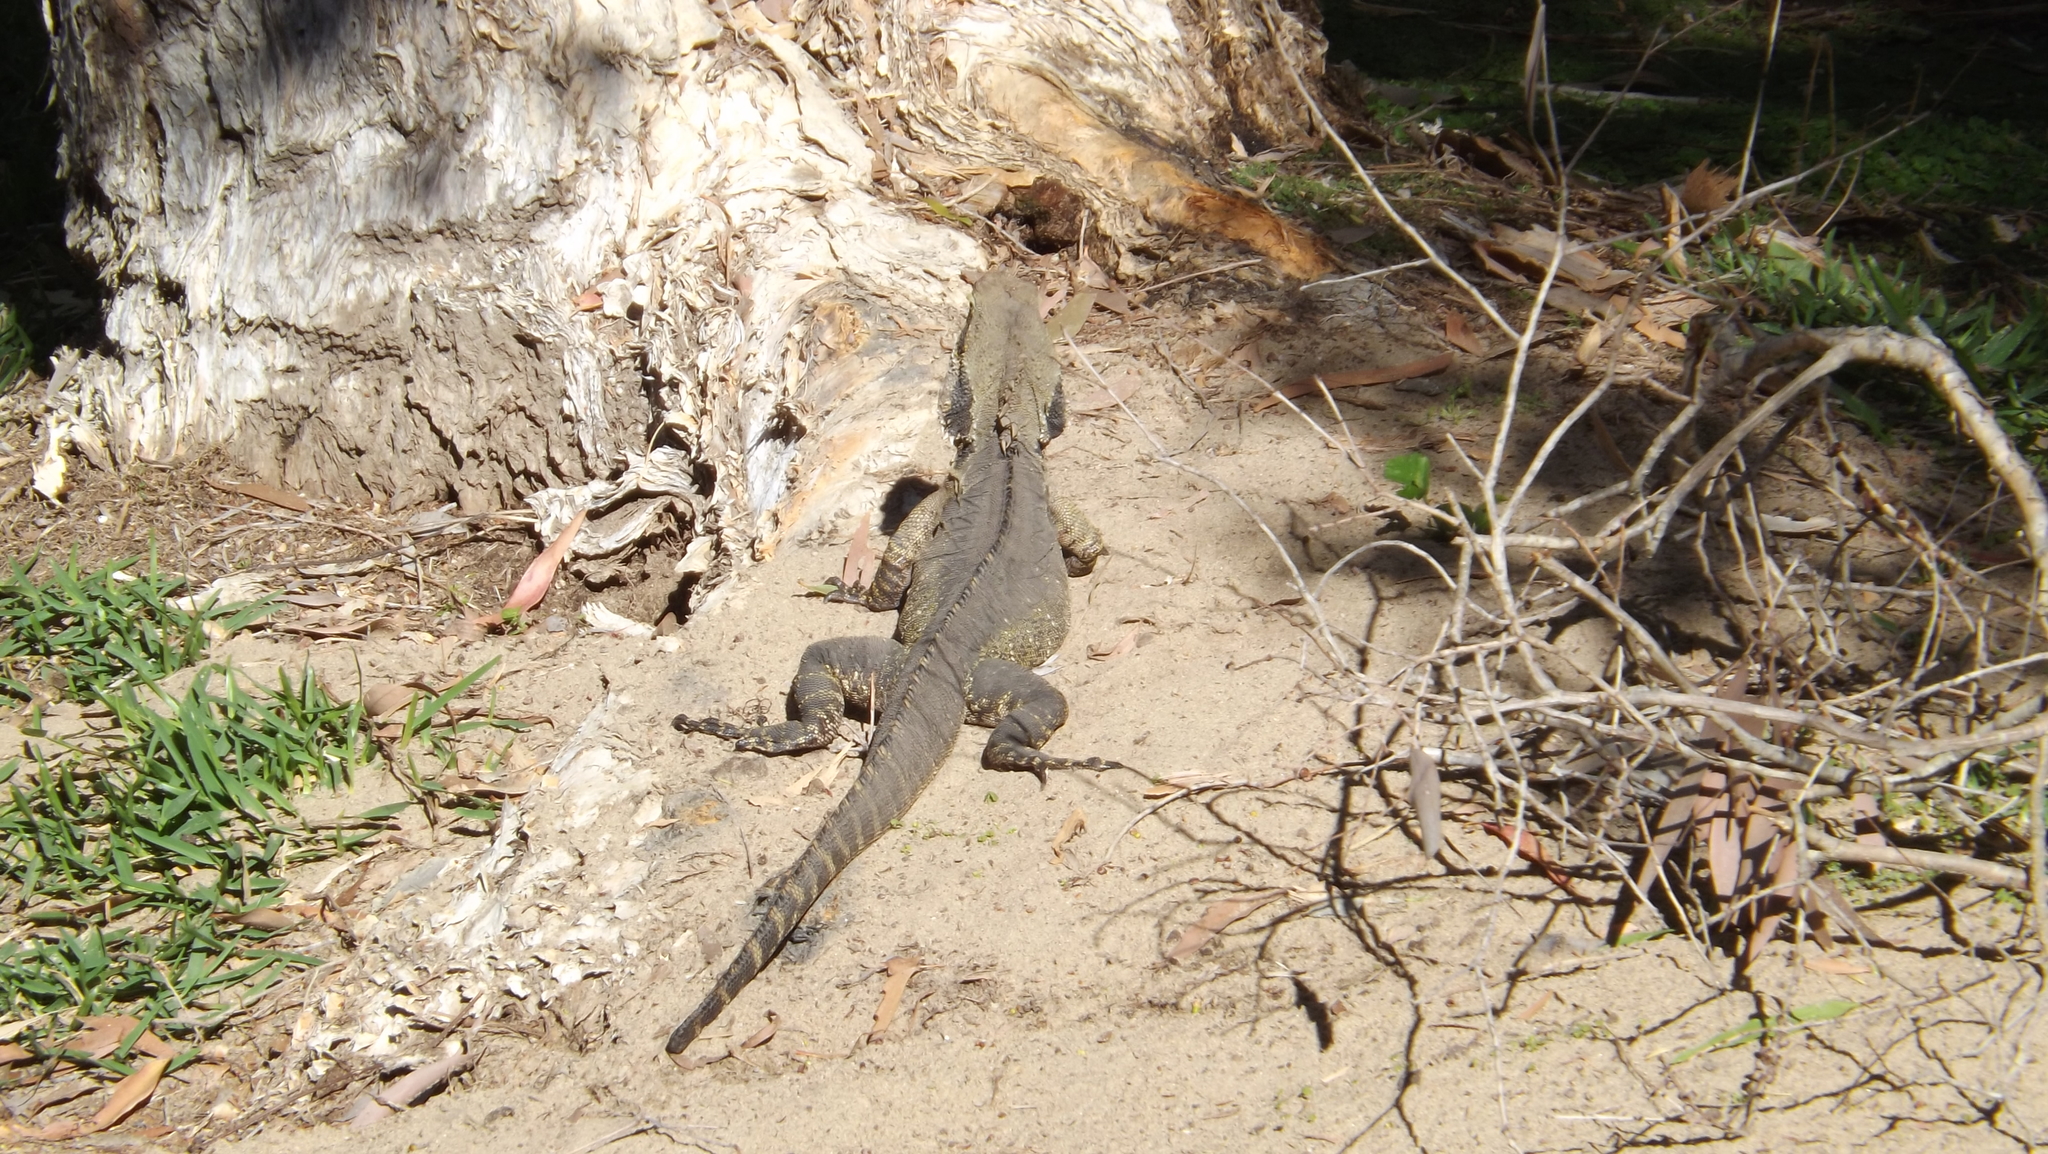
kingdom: Animalia
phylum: Chordata
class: Squamata
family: Agamidae
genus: Intellagama
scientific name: Intellagama lesueurii
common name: Eastern water dragon
